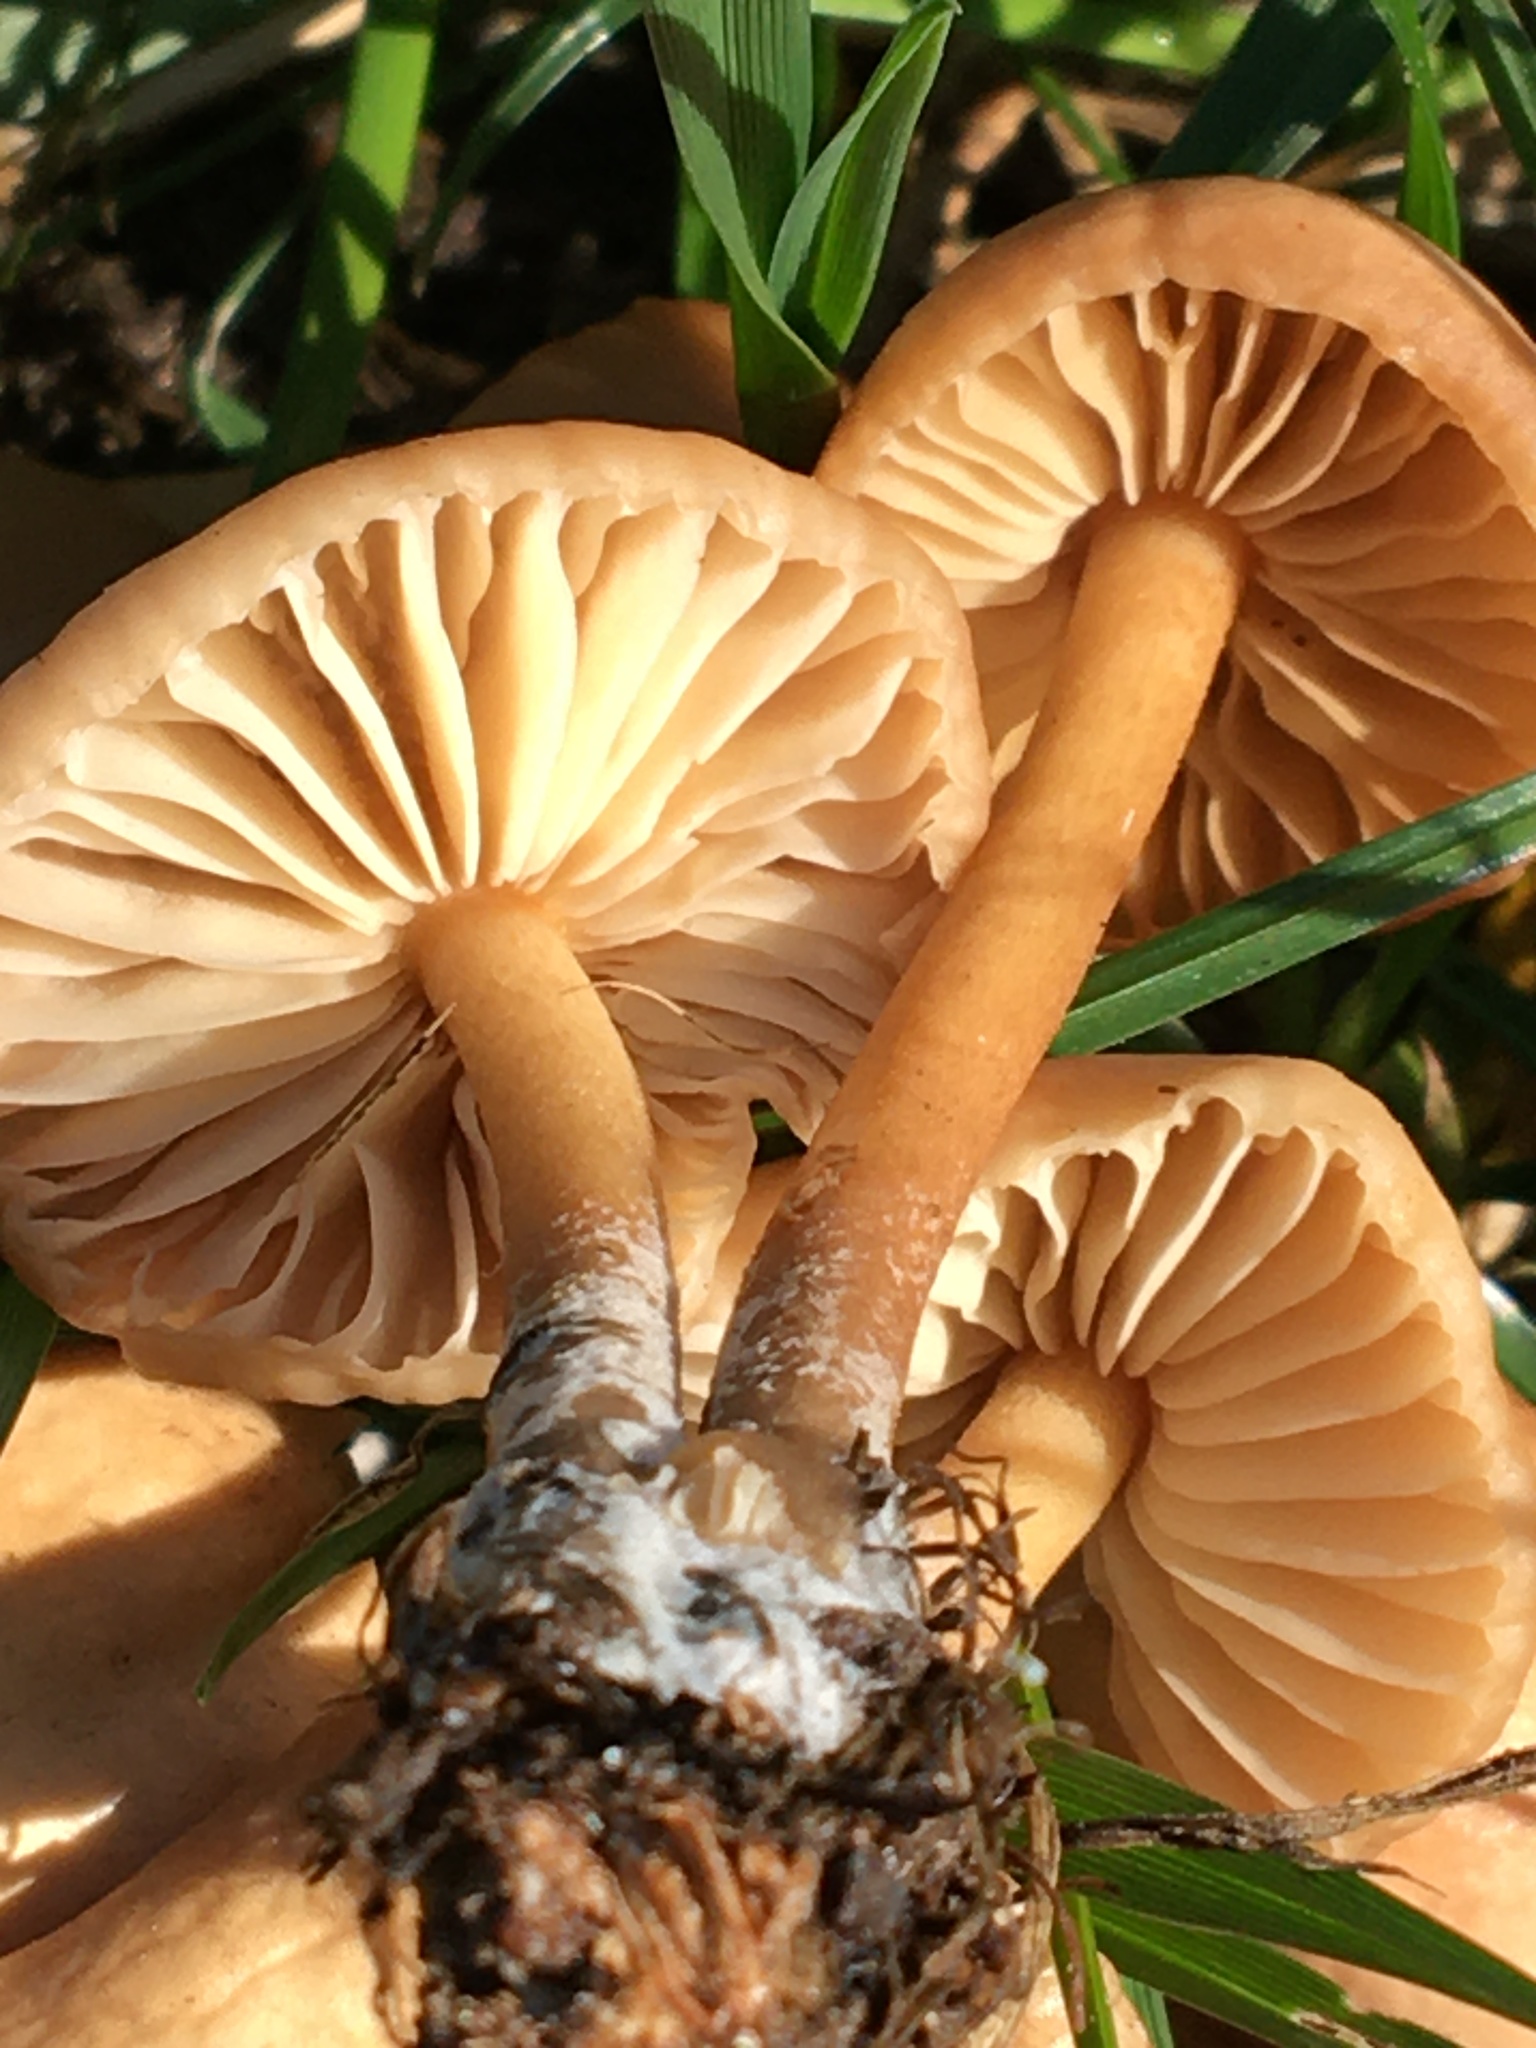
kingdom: Fungi
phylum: Basidiomycota
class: Agaricomycetes
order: Agaricales
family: Marasmiaceae
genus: Marasmius
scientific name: Marasmius oreades
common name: Fairy ring champignon
